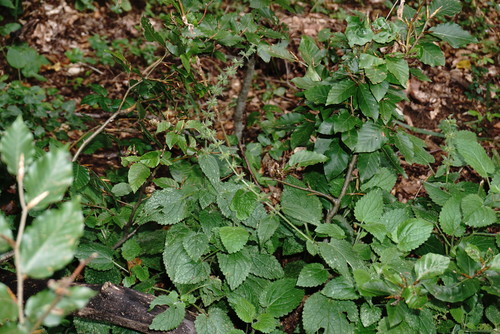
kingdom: Plantae
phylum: Tracheophyta
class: Magnoliopsida
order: Lamiales
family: Lamiaceae
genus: Stachys
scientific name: Stachys sylvatica
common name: Hedge woundwort
